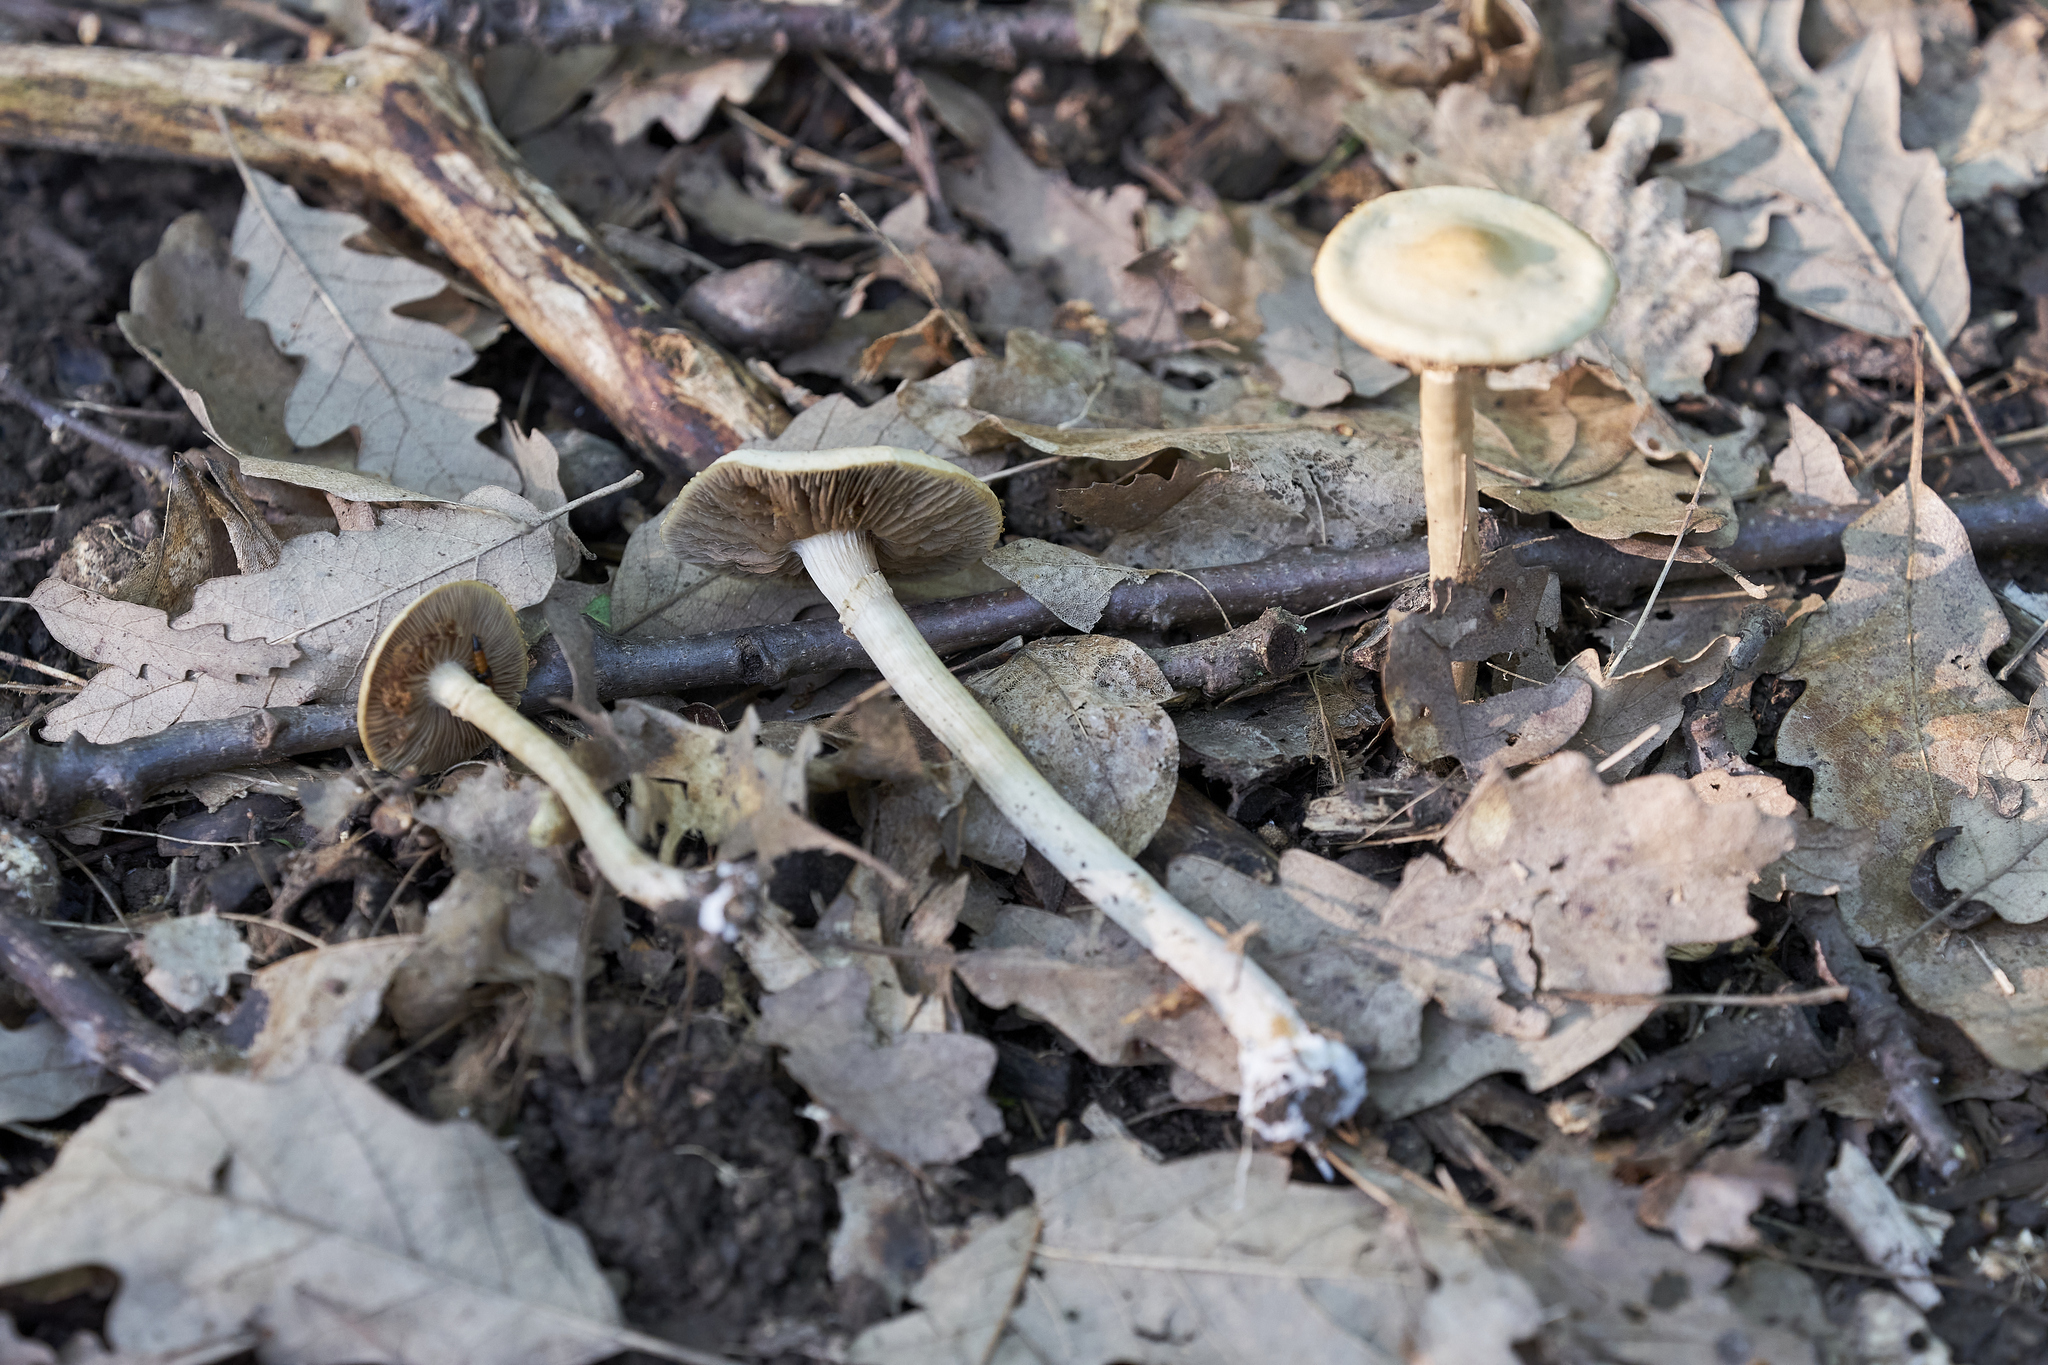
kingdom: Fungi
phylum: Basidiomycota
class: Agaricomycetes
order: Agaricales
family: Physalacriaceae
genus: Hymenopellis
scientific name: Hymenopellis radicata
